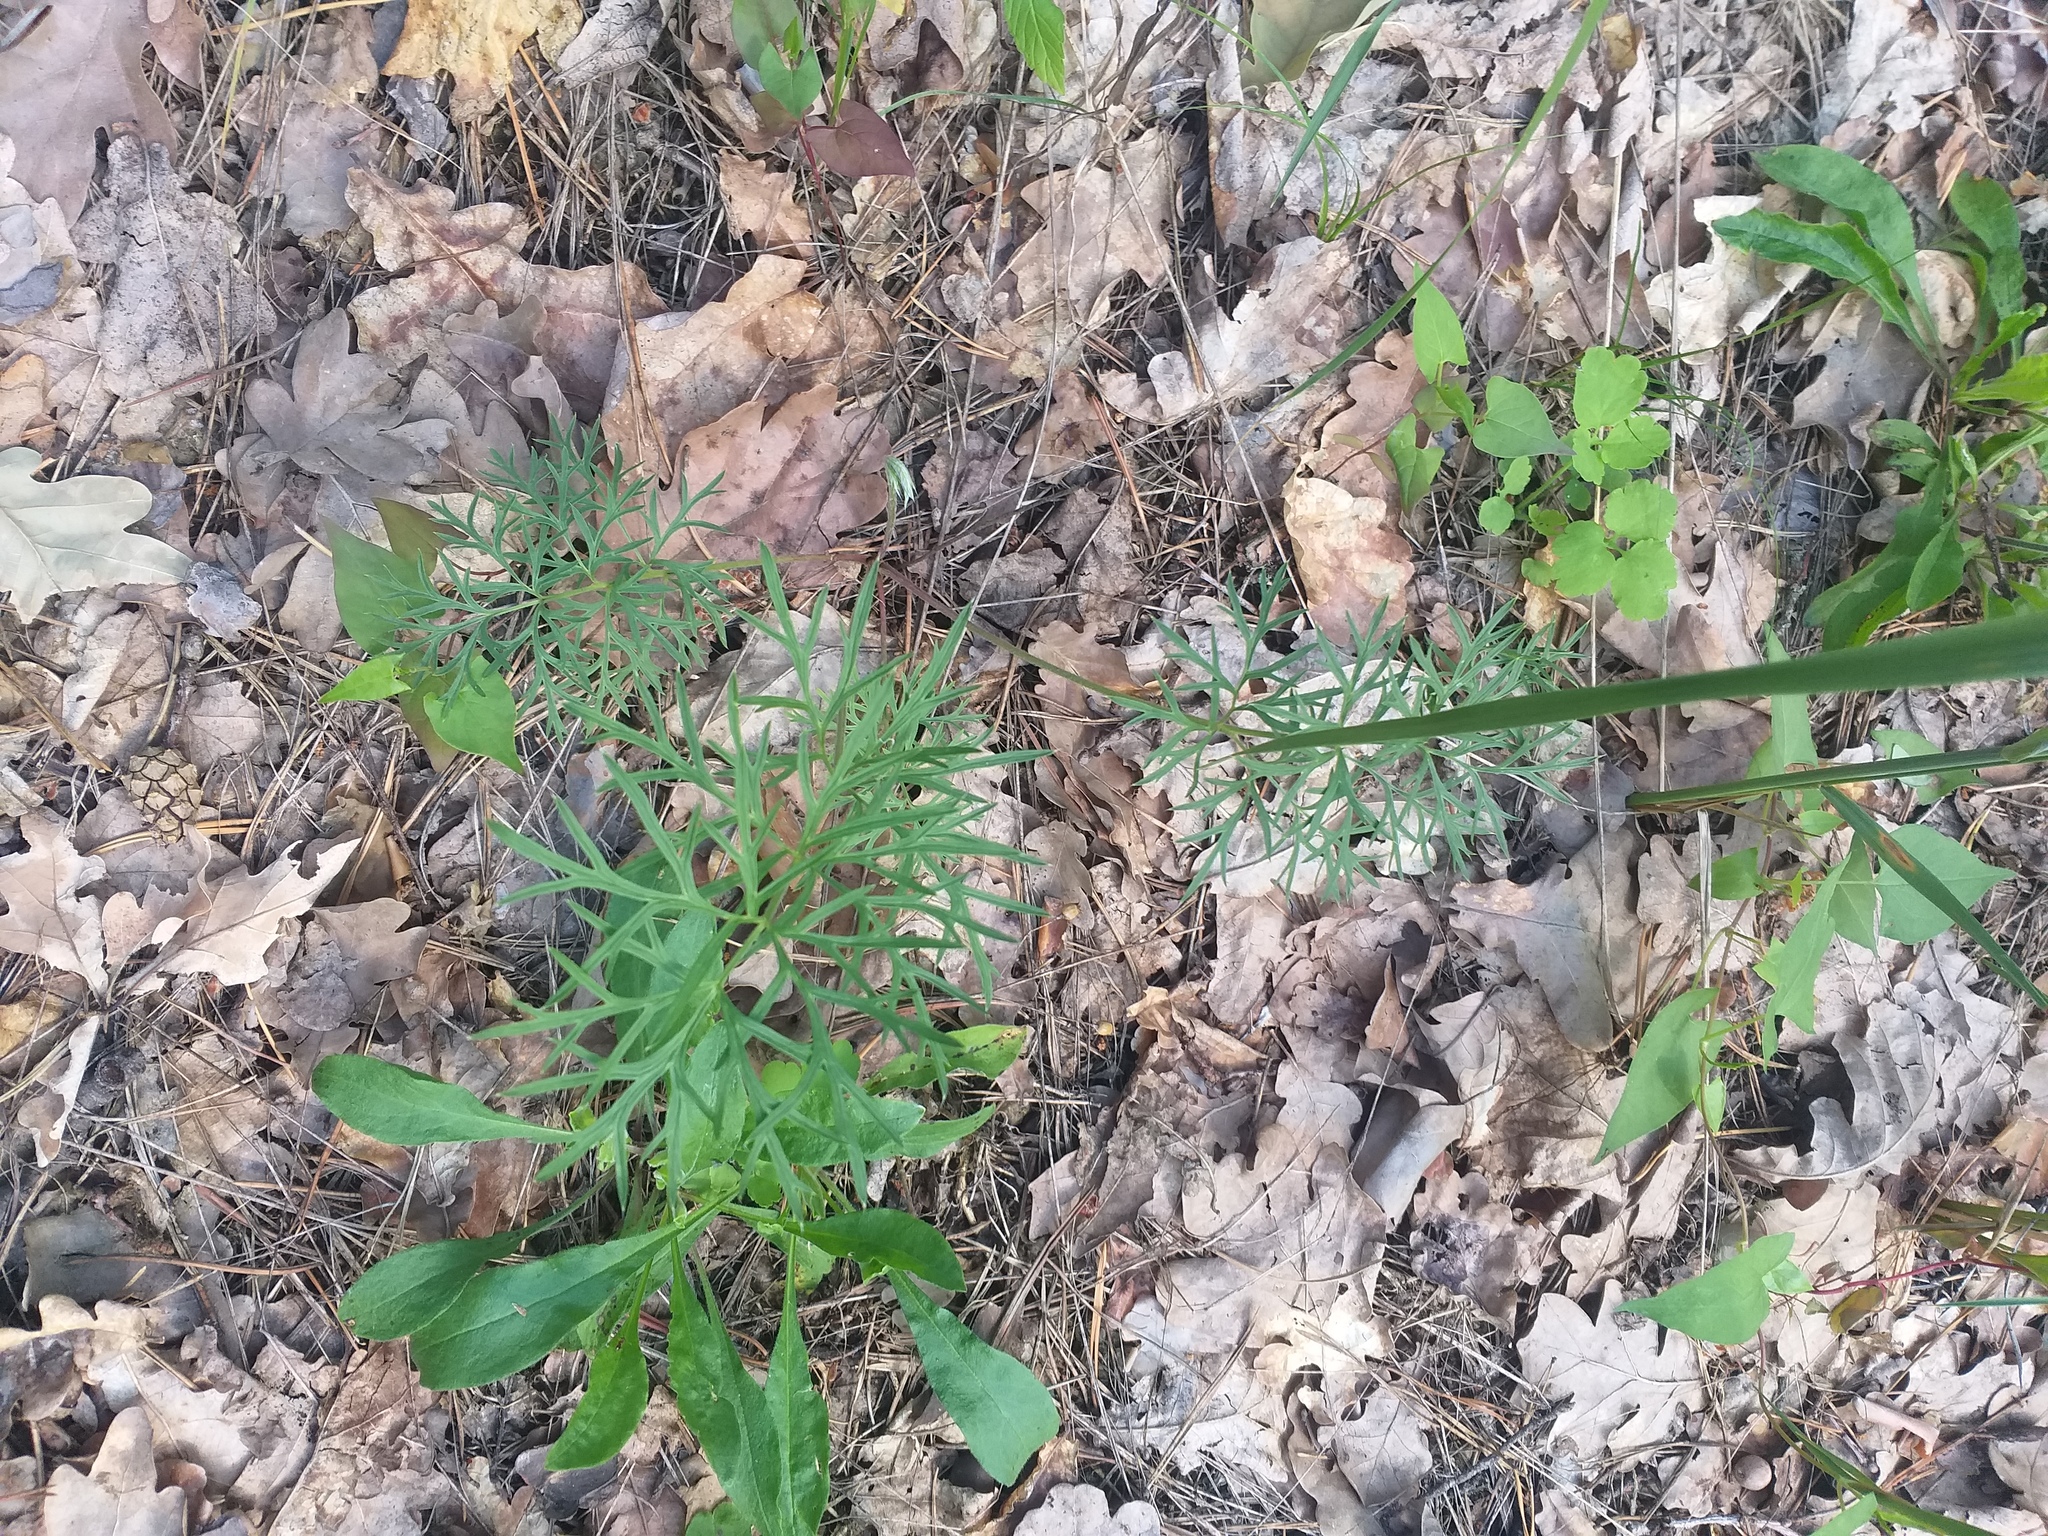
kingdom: Plantae
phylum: Tracheophyta
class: Magnoliopsida
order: Ranunculales
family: Ranunculaceae
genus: Pulsatilla
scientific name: Pulsatilla pratensis
